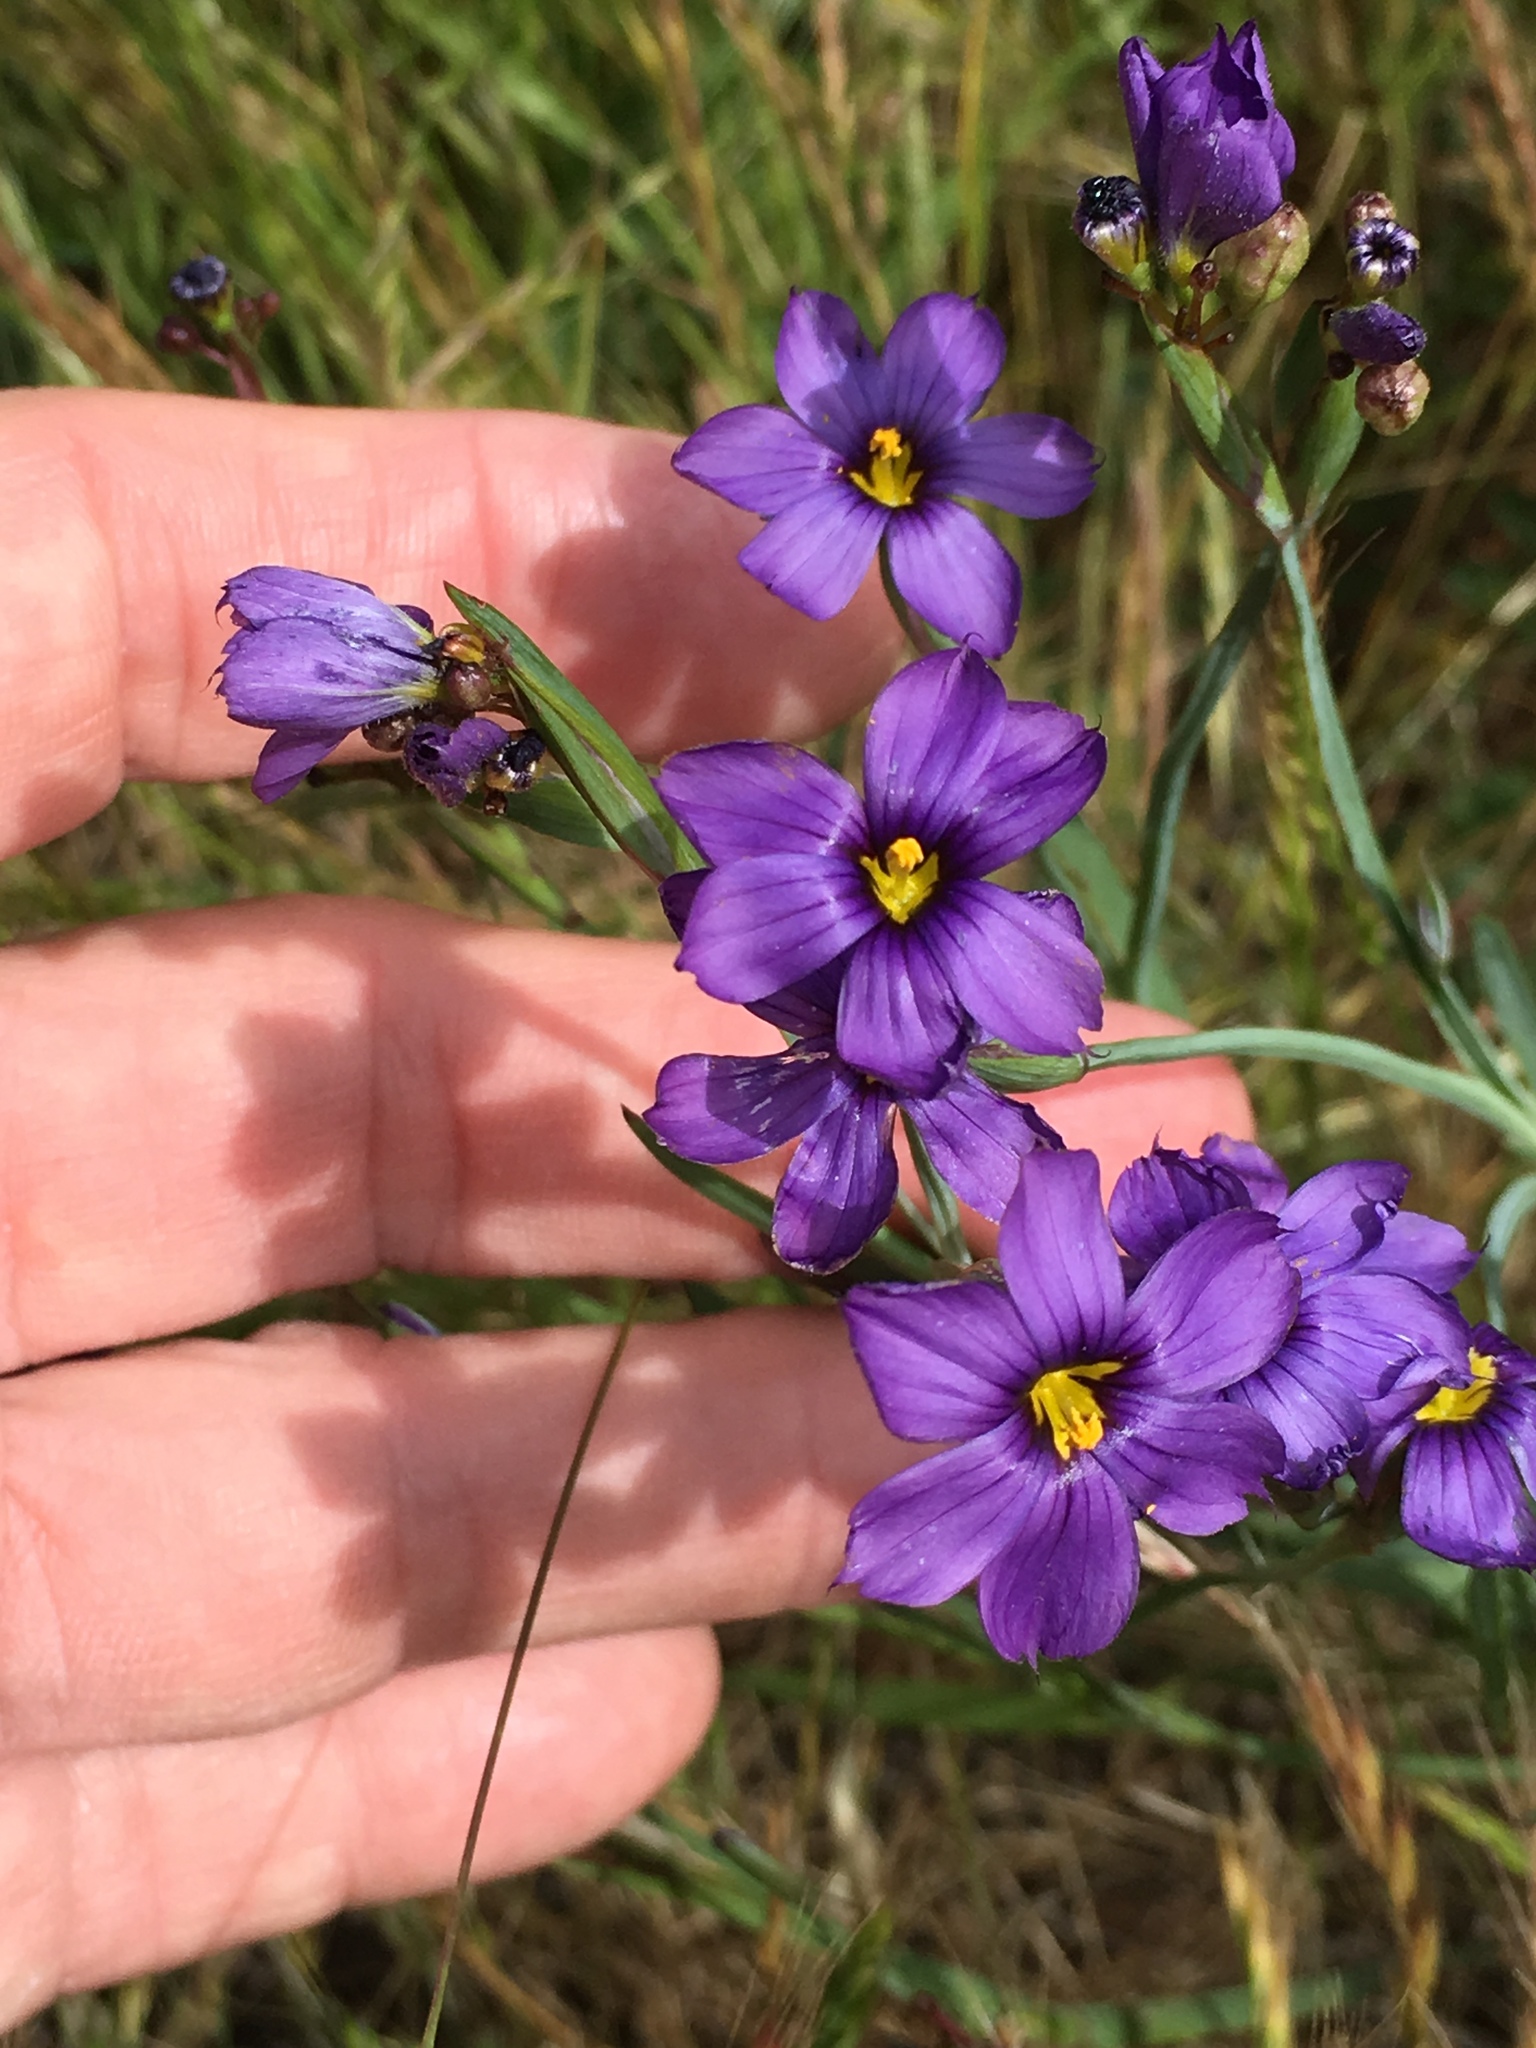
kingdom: Plantae
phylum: Tracheophyta
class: Liliopsida
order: Asparagales
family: Iridaceae
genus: Sisyrinchium
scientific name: Sisyrinchium bellum
